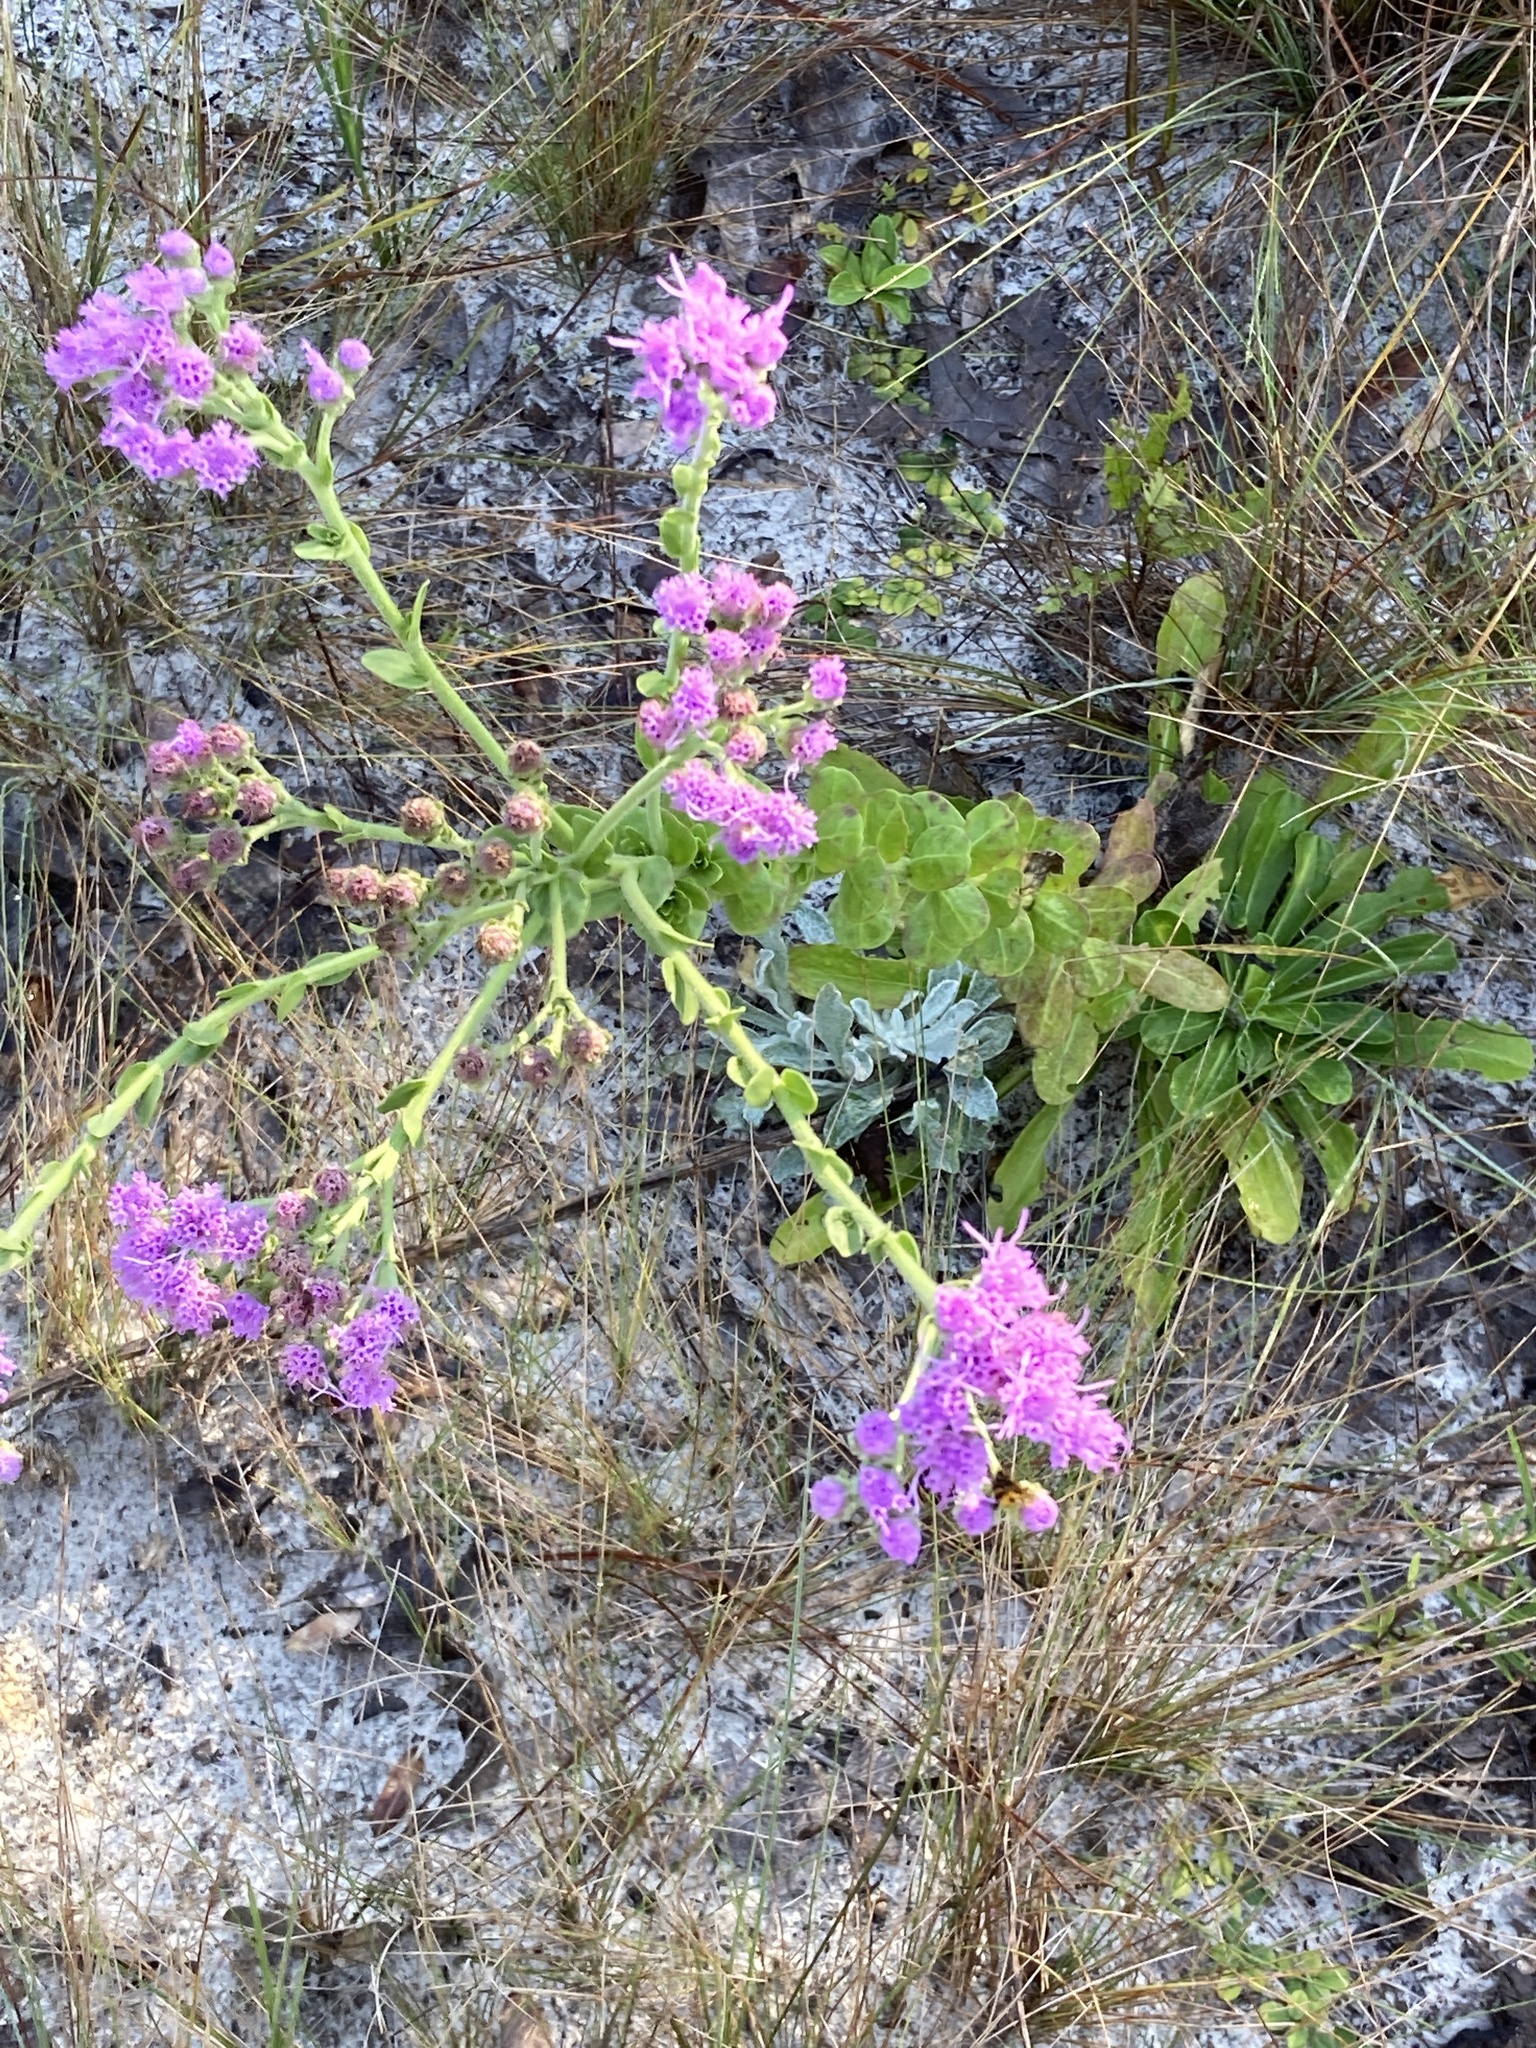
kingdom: Plantae
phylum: Tracheophyta
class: Magnoliopsida
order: Asterales
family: Asteraceae
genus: Carphephorus
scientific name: Carphephorus corymbosus
